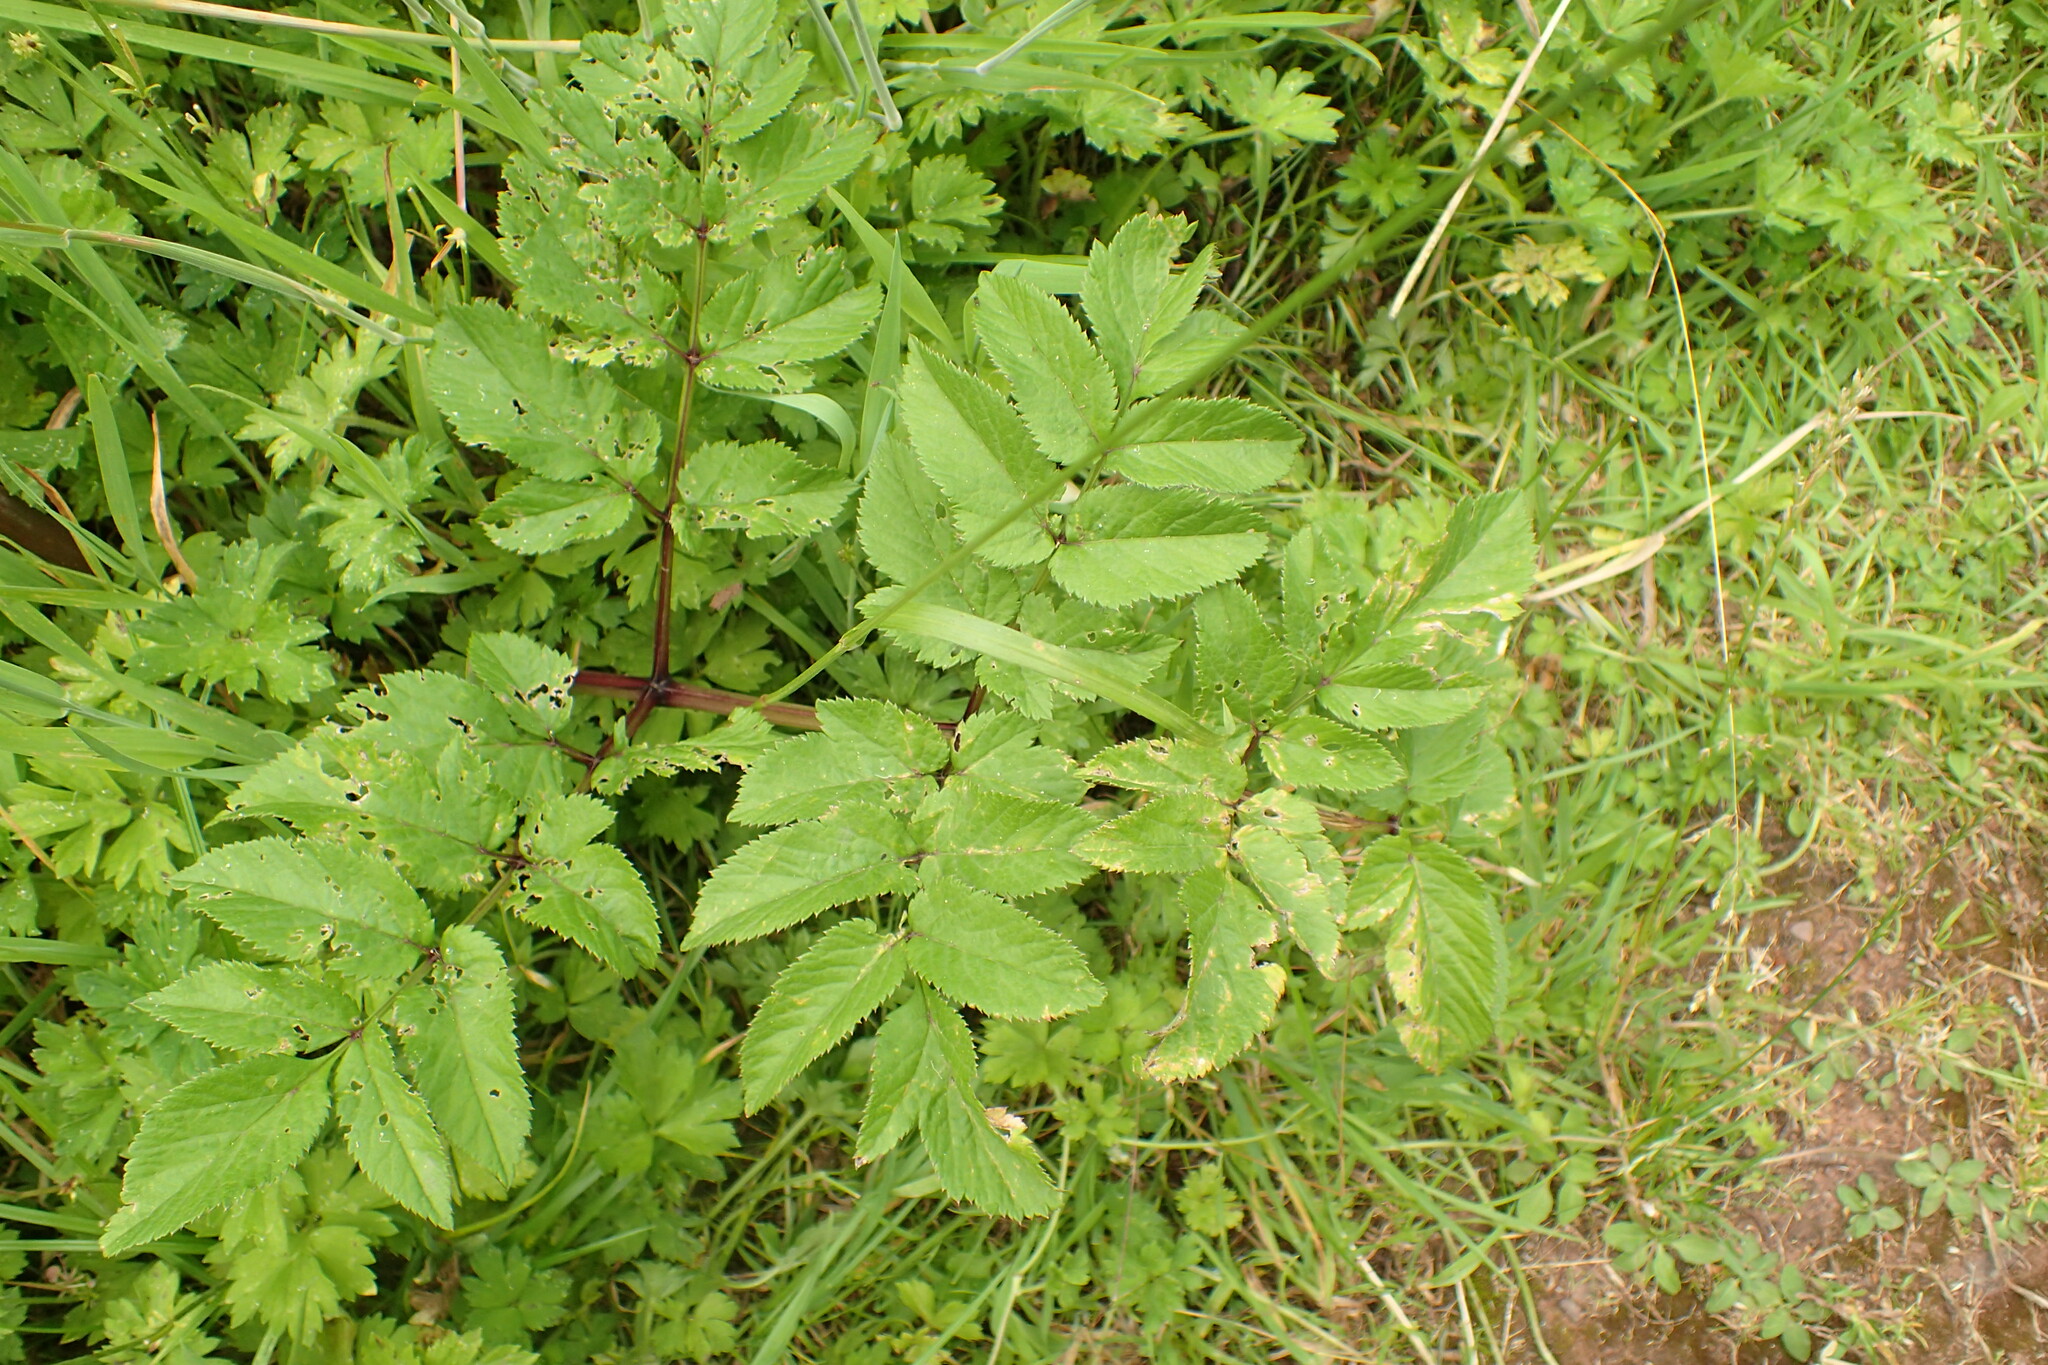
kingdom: Plantae
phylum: Tracheophyta
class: Magnoliopsida
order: Apiales
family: Apiaceae
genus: Angelica
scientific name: Angelica sylvestris
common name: Wild angelica
